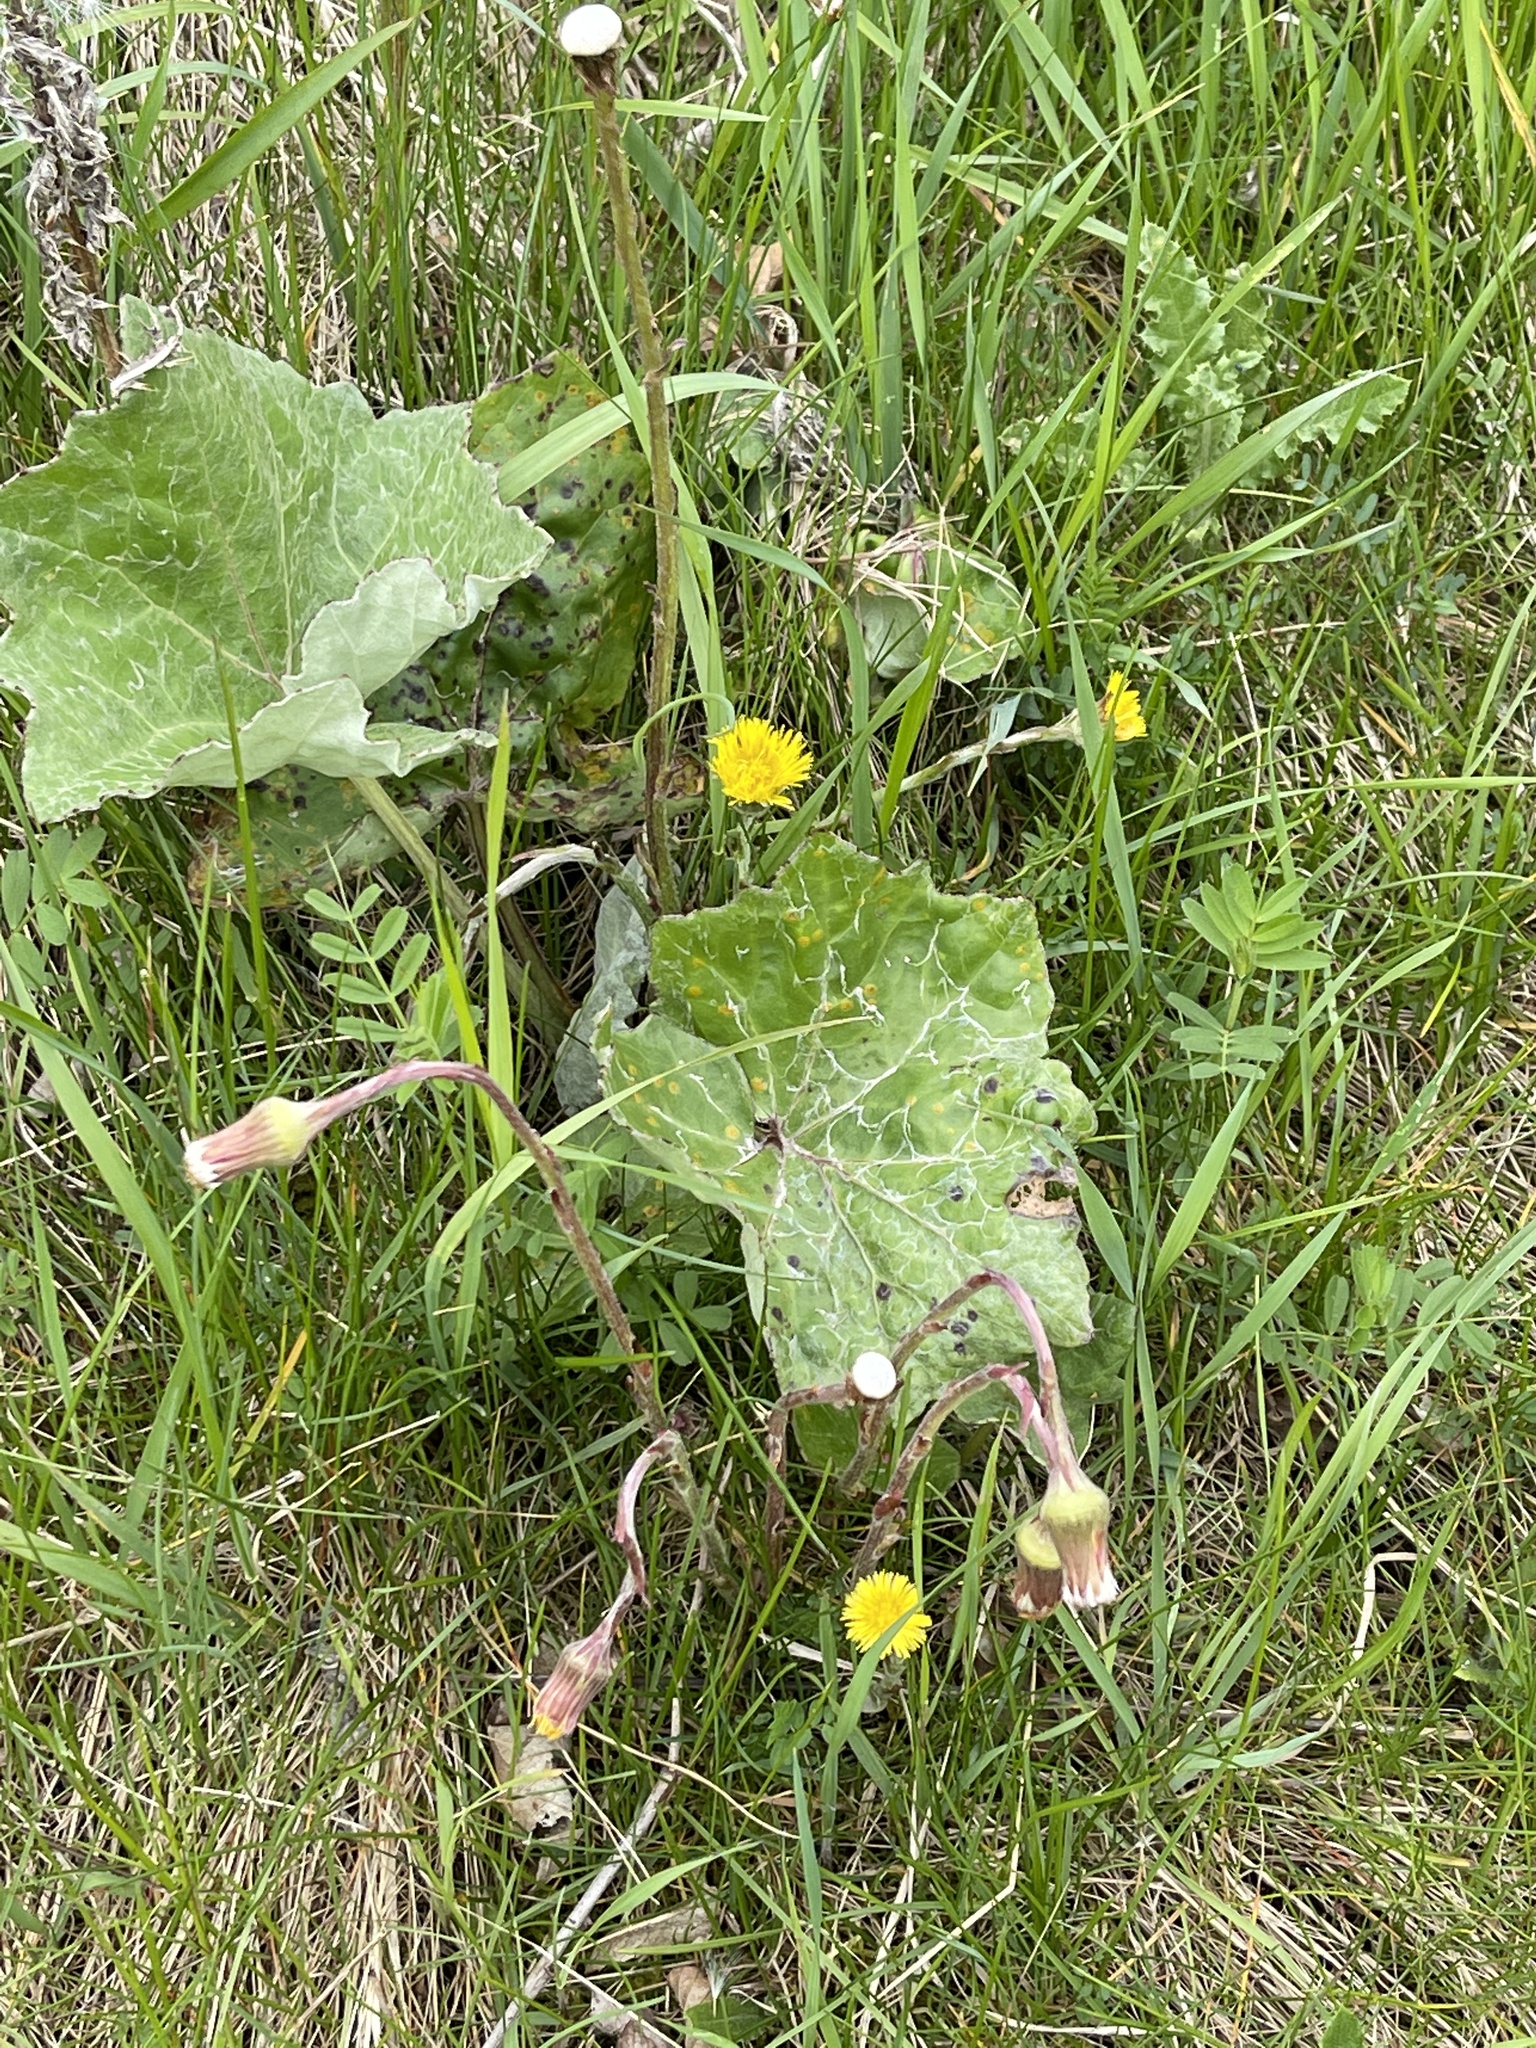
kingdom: Plantae
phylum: Tracheophyta
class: Magnoliopsida
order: Asterales
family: Asteraceae
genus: Tussilago
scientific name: Tussilago farfara
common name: Coltsfoot
